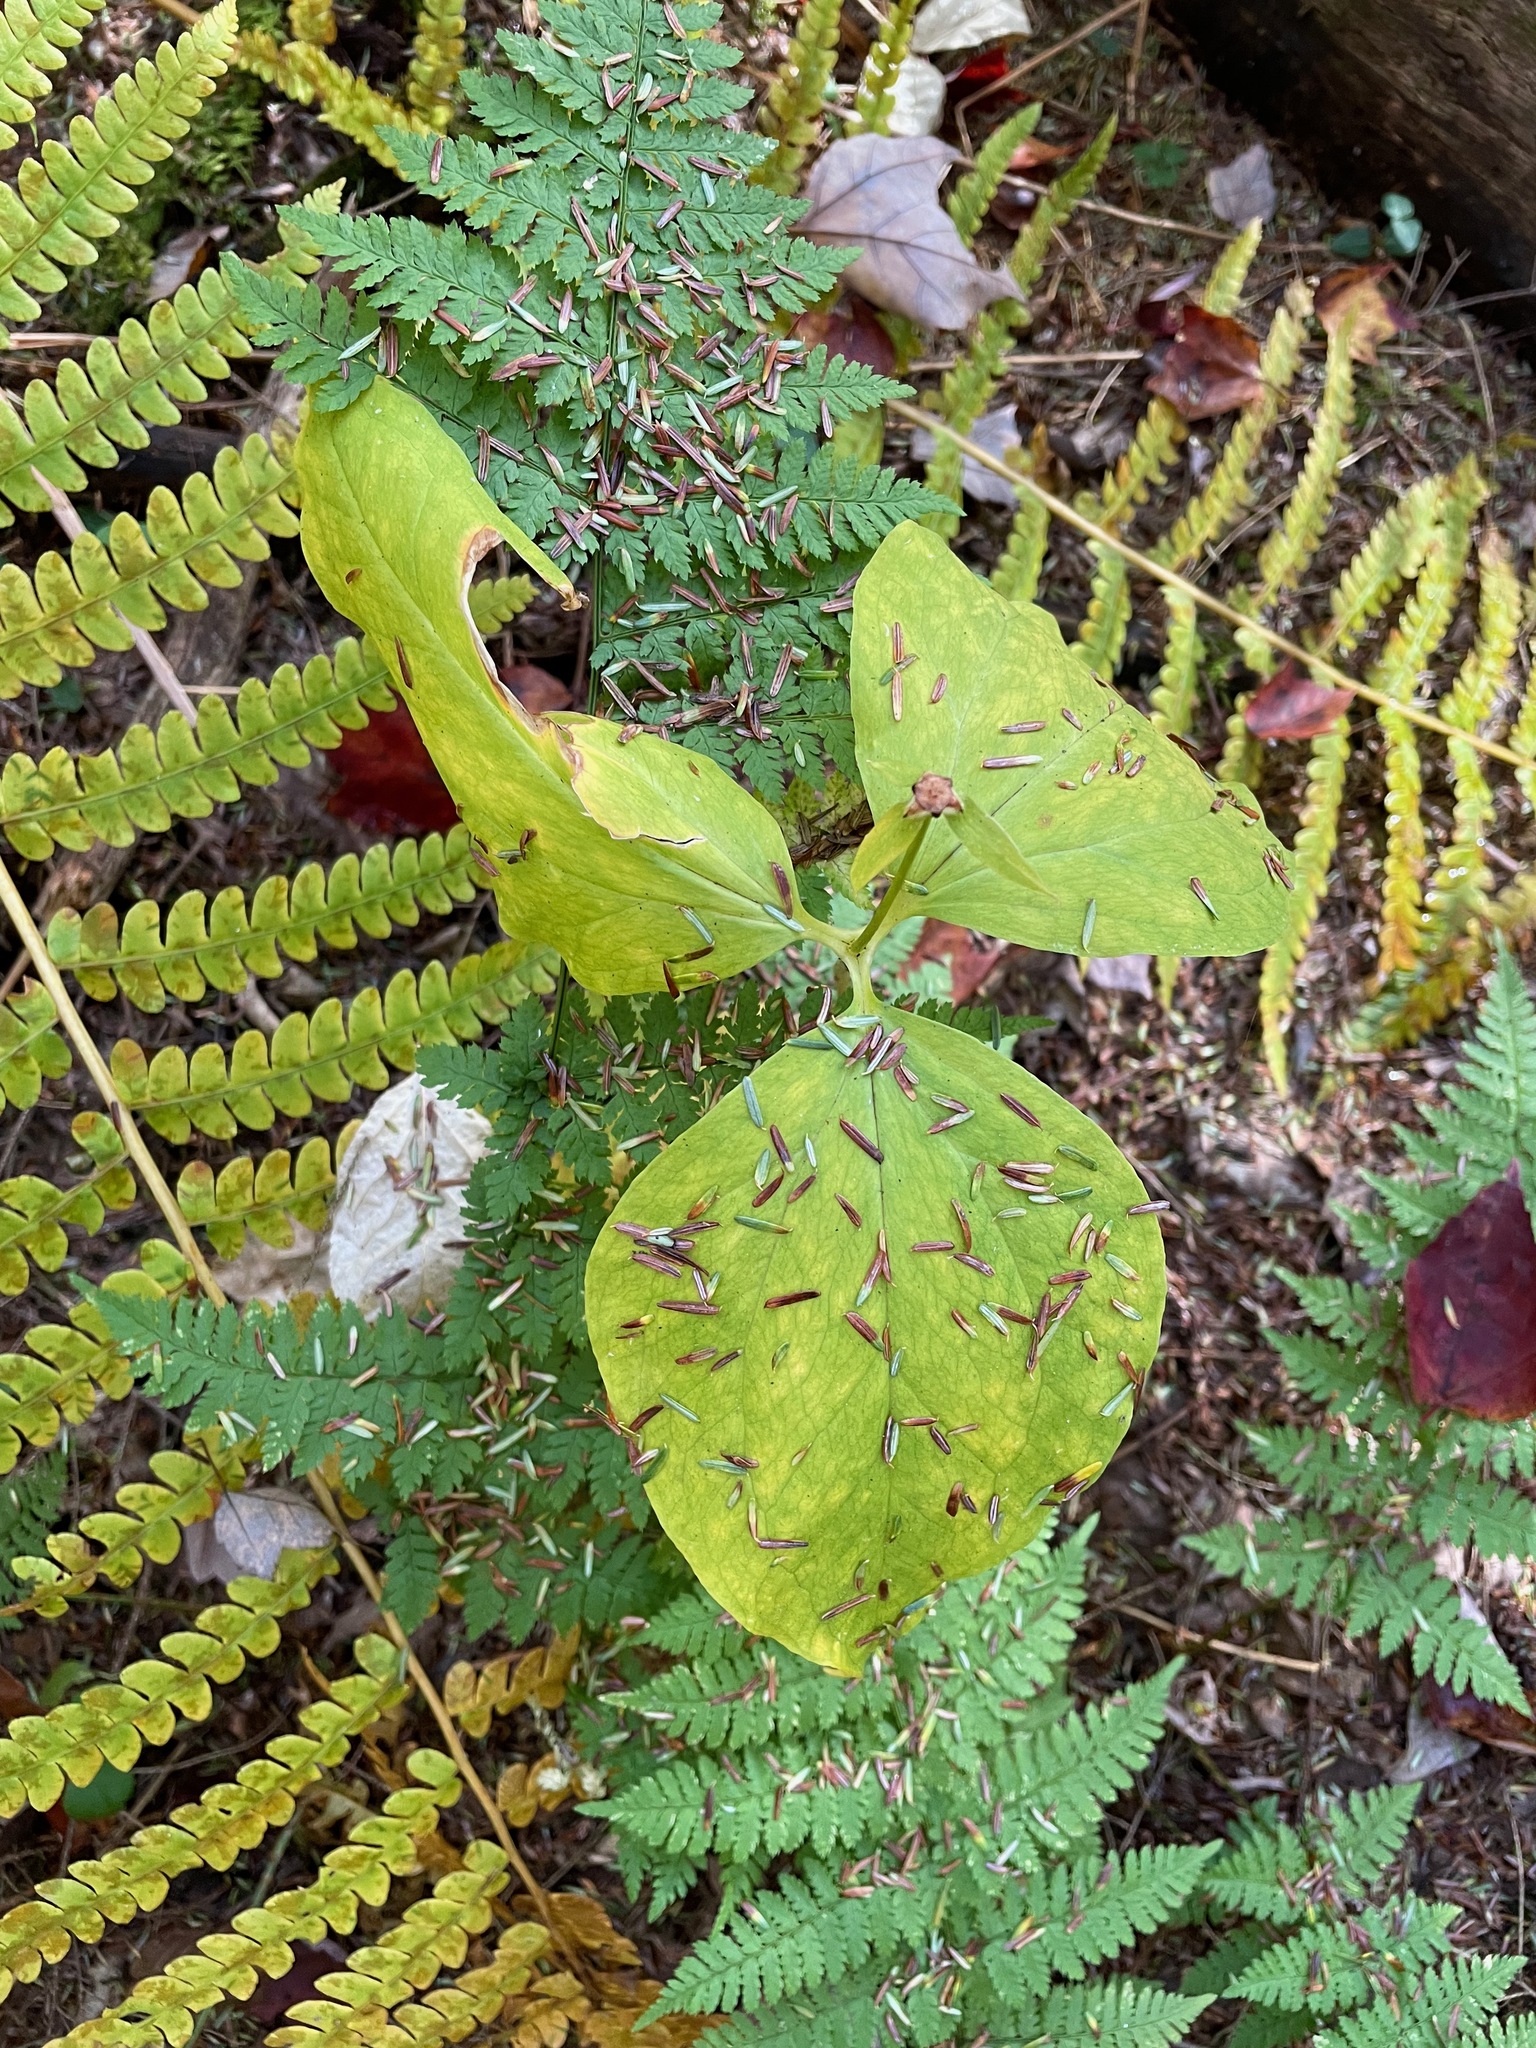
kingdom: Plantae
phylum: Tracheophyta
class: Liliopsida
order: Liliales
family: Melanthiaceae
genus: Trillium
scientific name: Trillium undulatum
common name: Paint trillium
